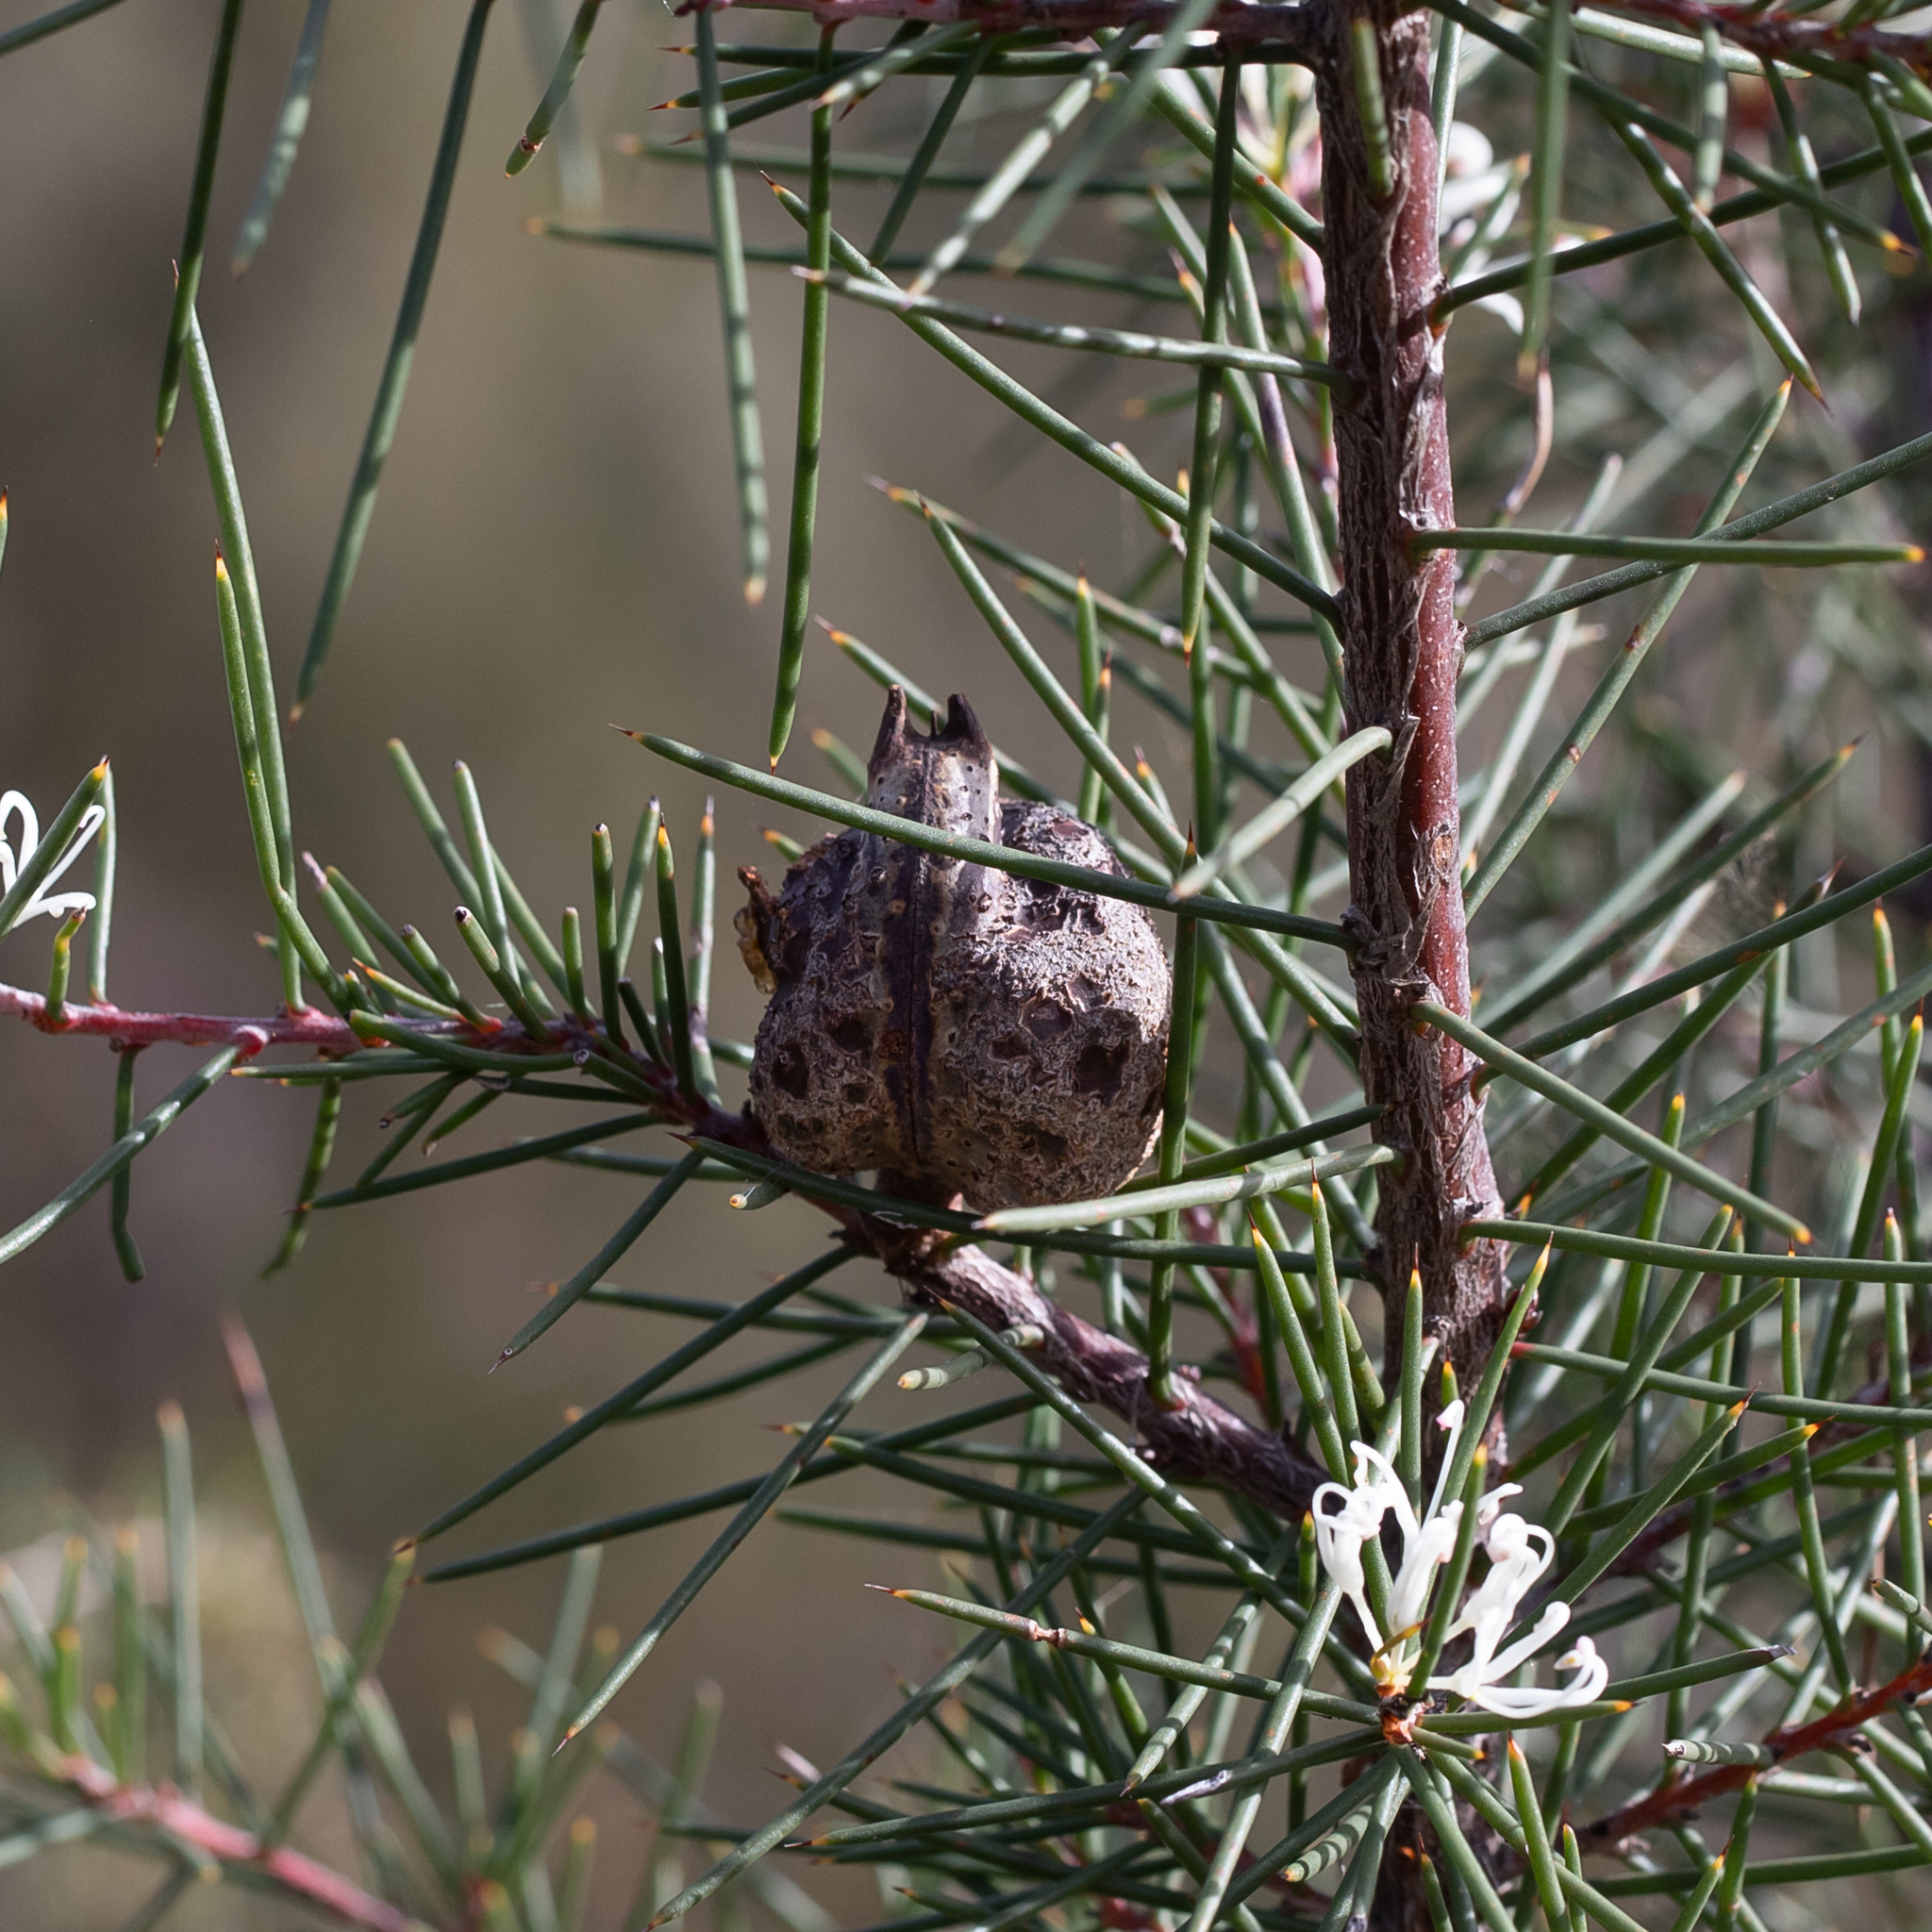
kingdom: Plantae
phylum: Tracheophyta
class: Magnoliopsida
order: Proteales
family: Proteaceae
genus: Hakea
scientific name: Hakea decurrens
